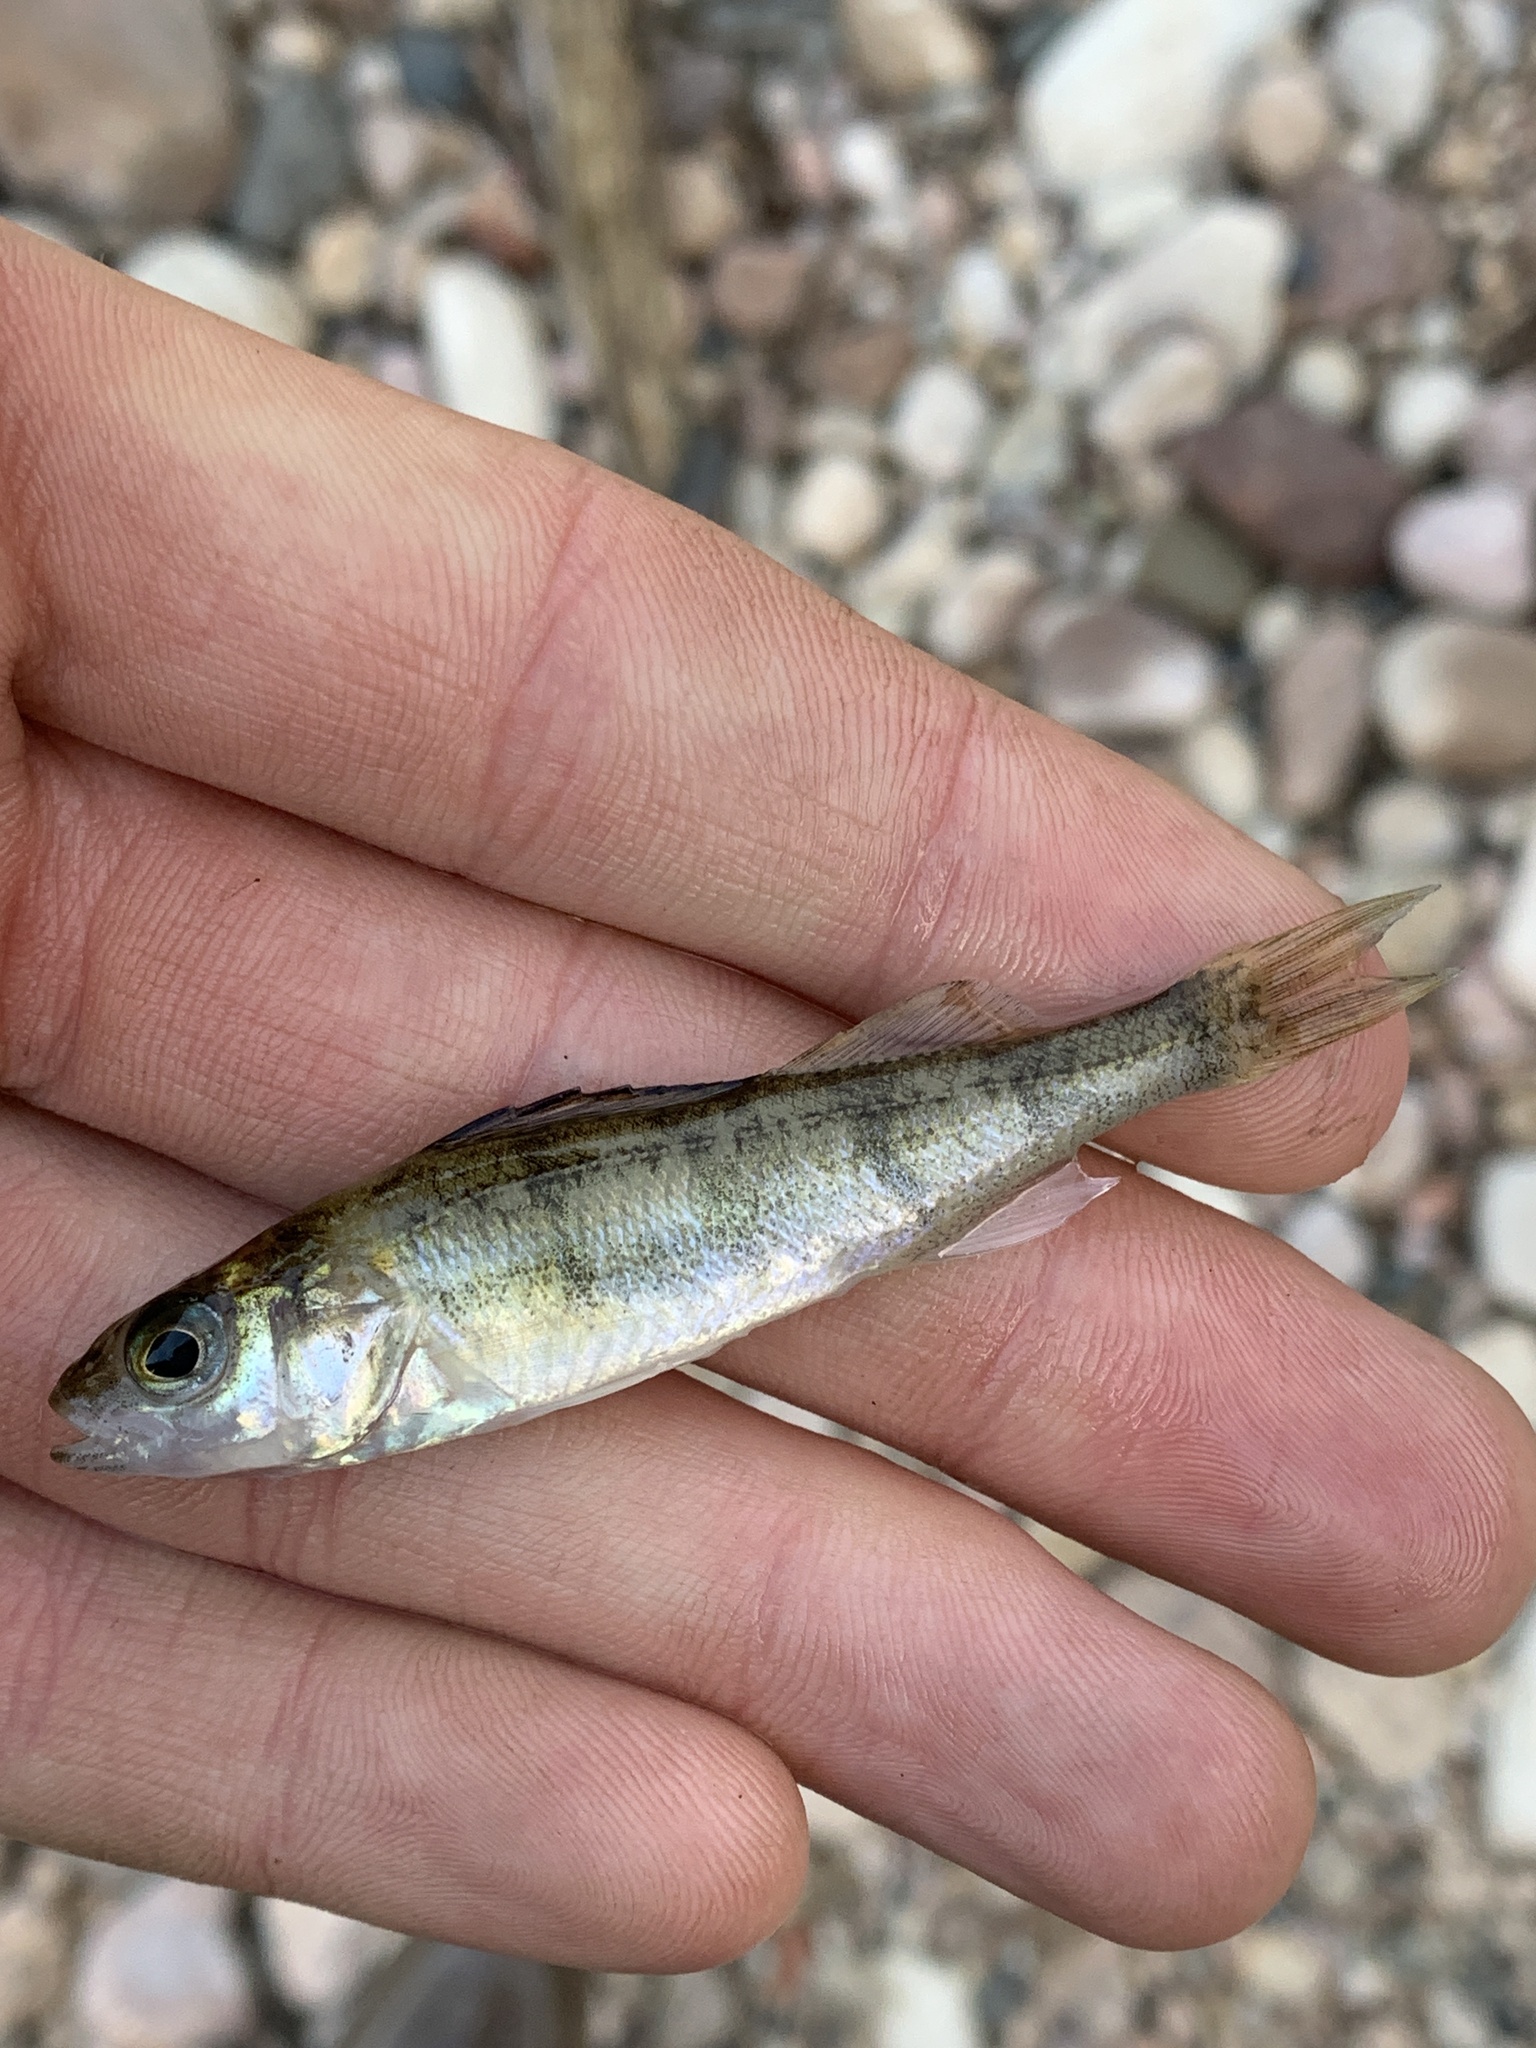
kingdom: Animalia
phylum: Chordata
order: Perciformes
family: Percidae
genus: Perca
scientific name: Perca flavescens
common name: Yellow perch
